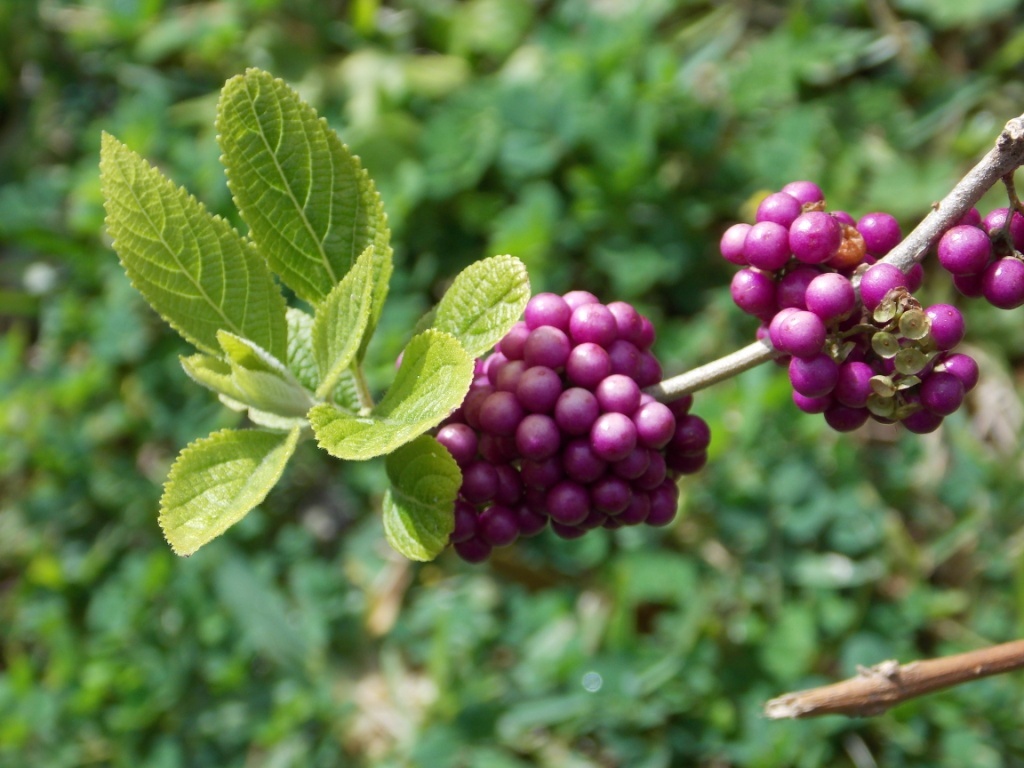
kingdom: Plantae
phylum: Tracheophyta
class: Magnoliopsida
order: Lamiales
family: Lamiaceae
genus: Callicarpa
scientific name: Callicarpa americana
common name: American beautyberry
